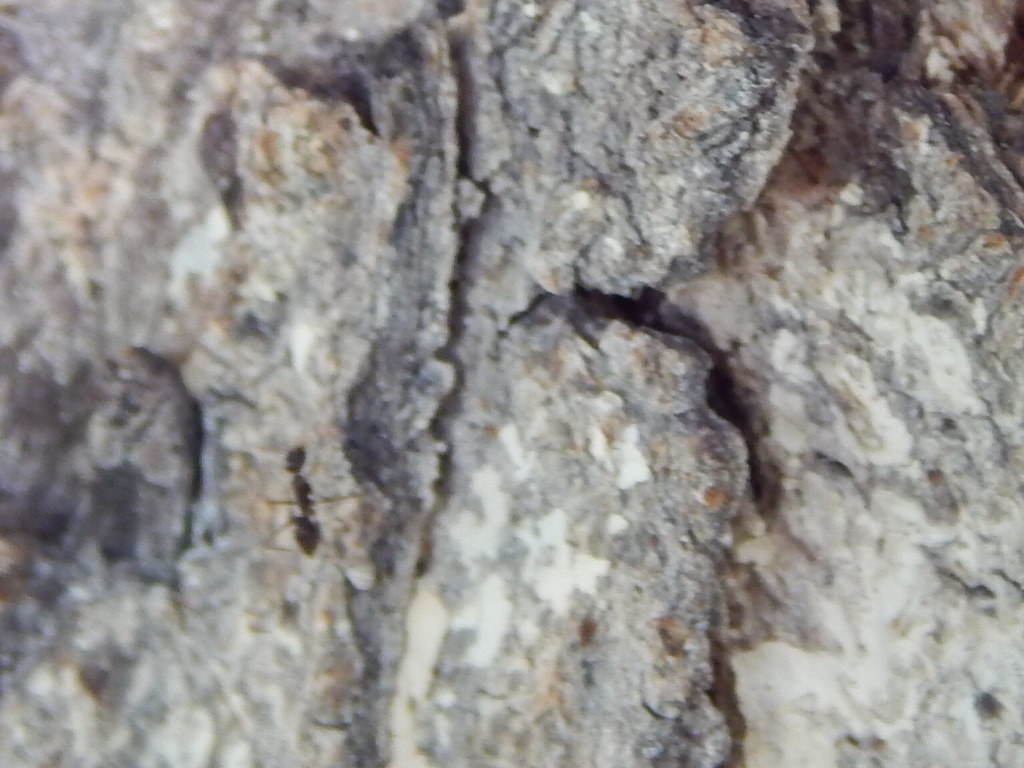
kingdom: Animalia
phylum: Arthropoda
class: Insecta
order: Hymenoptera
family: Formicidae
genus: Paratrechina
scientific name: Paratrechina longicornis
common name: Longhorned crazy ant
